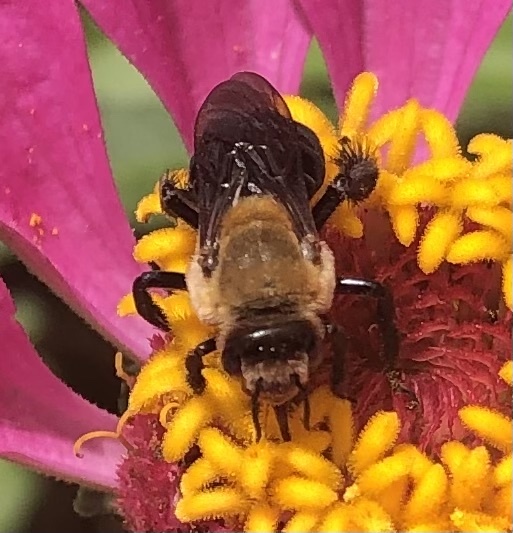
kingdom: Animalia
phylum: Arthropoda
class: Insecta
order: Hymenoptera
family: Apidae
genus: Ptilothrix
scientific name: Ptilothrix bombiformis
